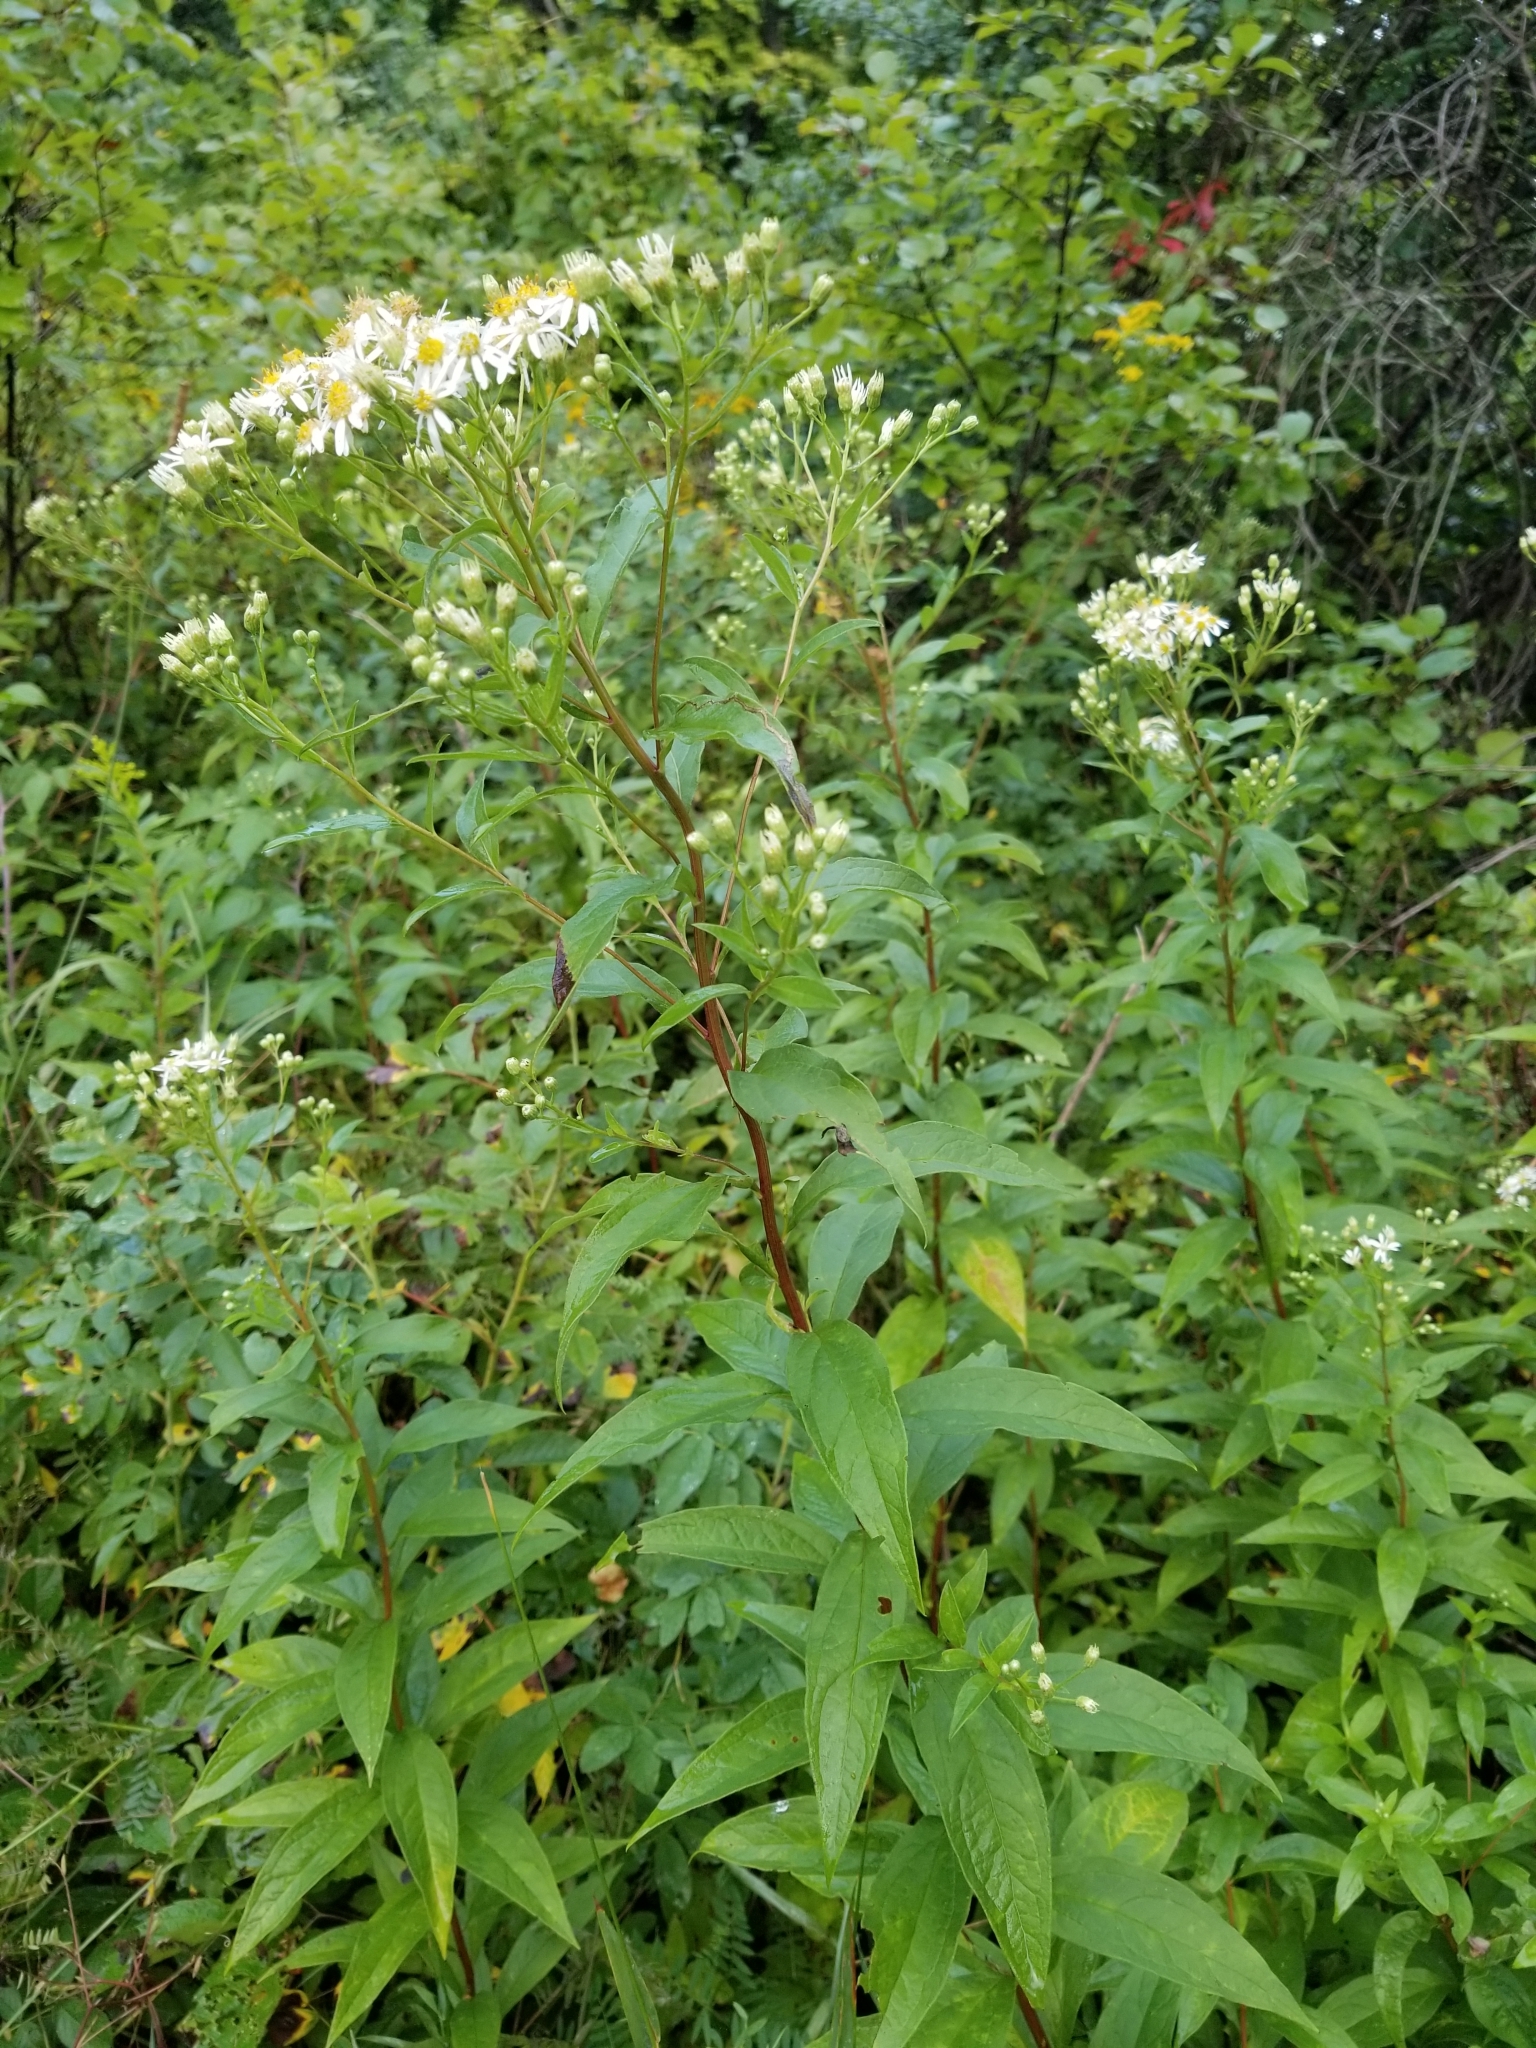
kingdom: Plantae
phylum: Tracheophyta
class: Magnoliopsida
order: Asterales
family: Asteraceae
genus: Doellingeria
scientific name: Doellingeria umbellata
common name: Flat-top white aster
